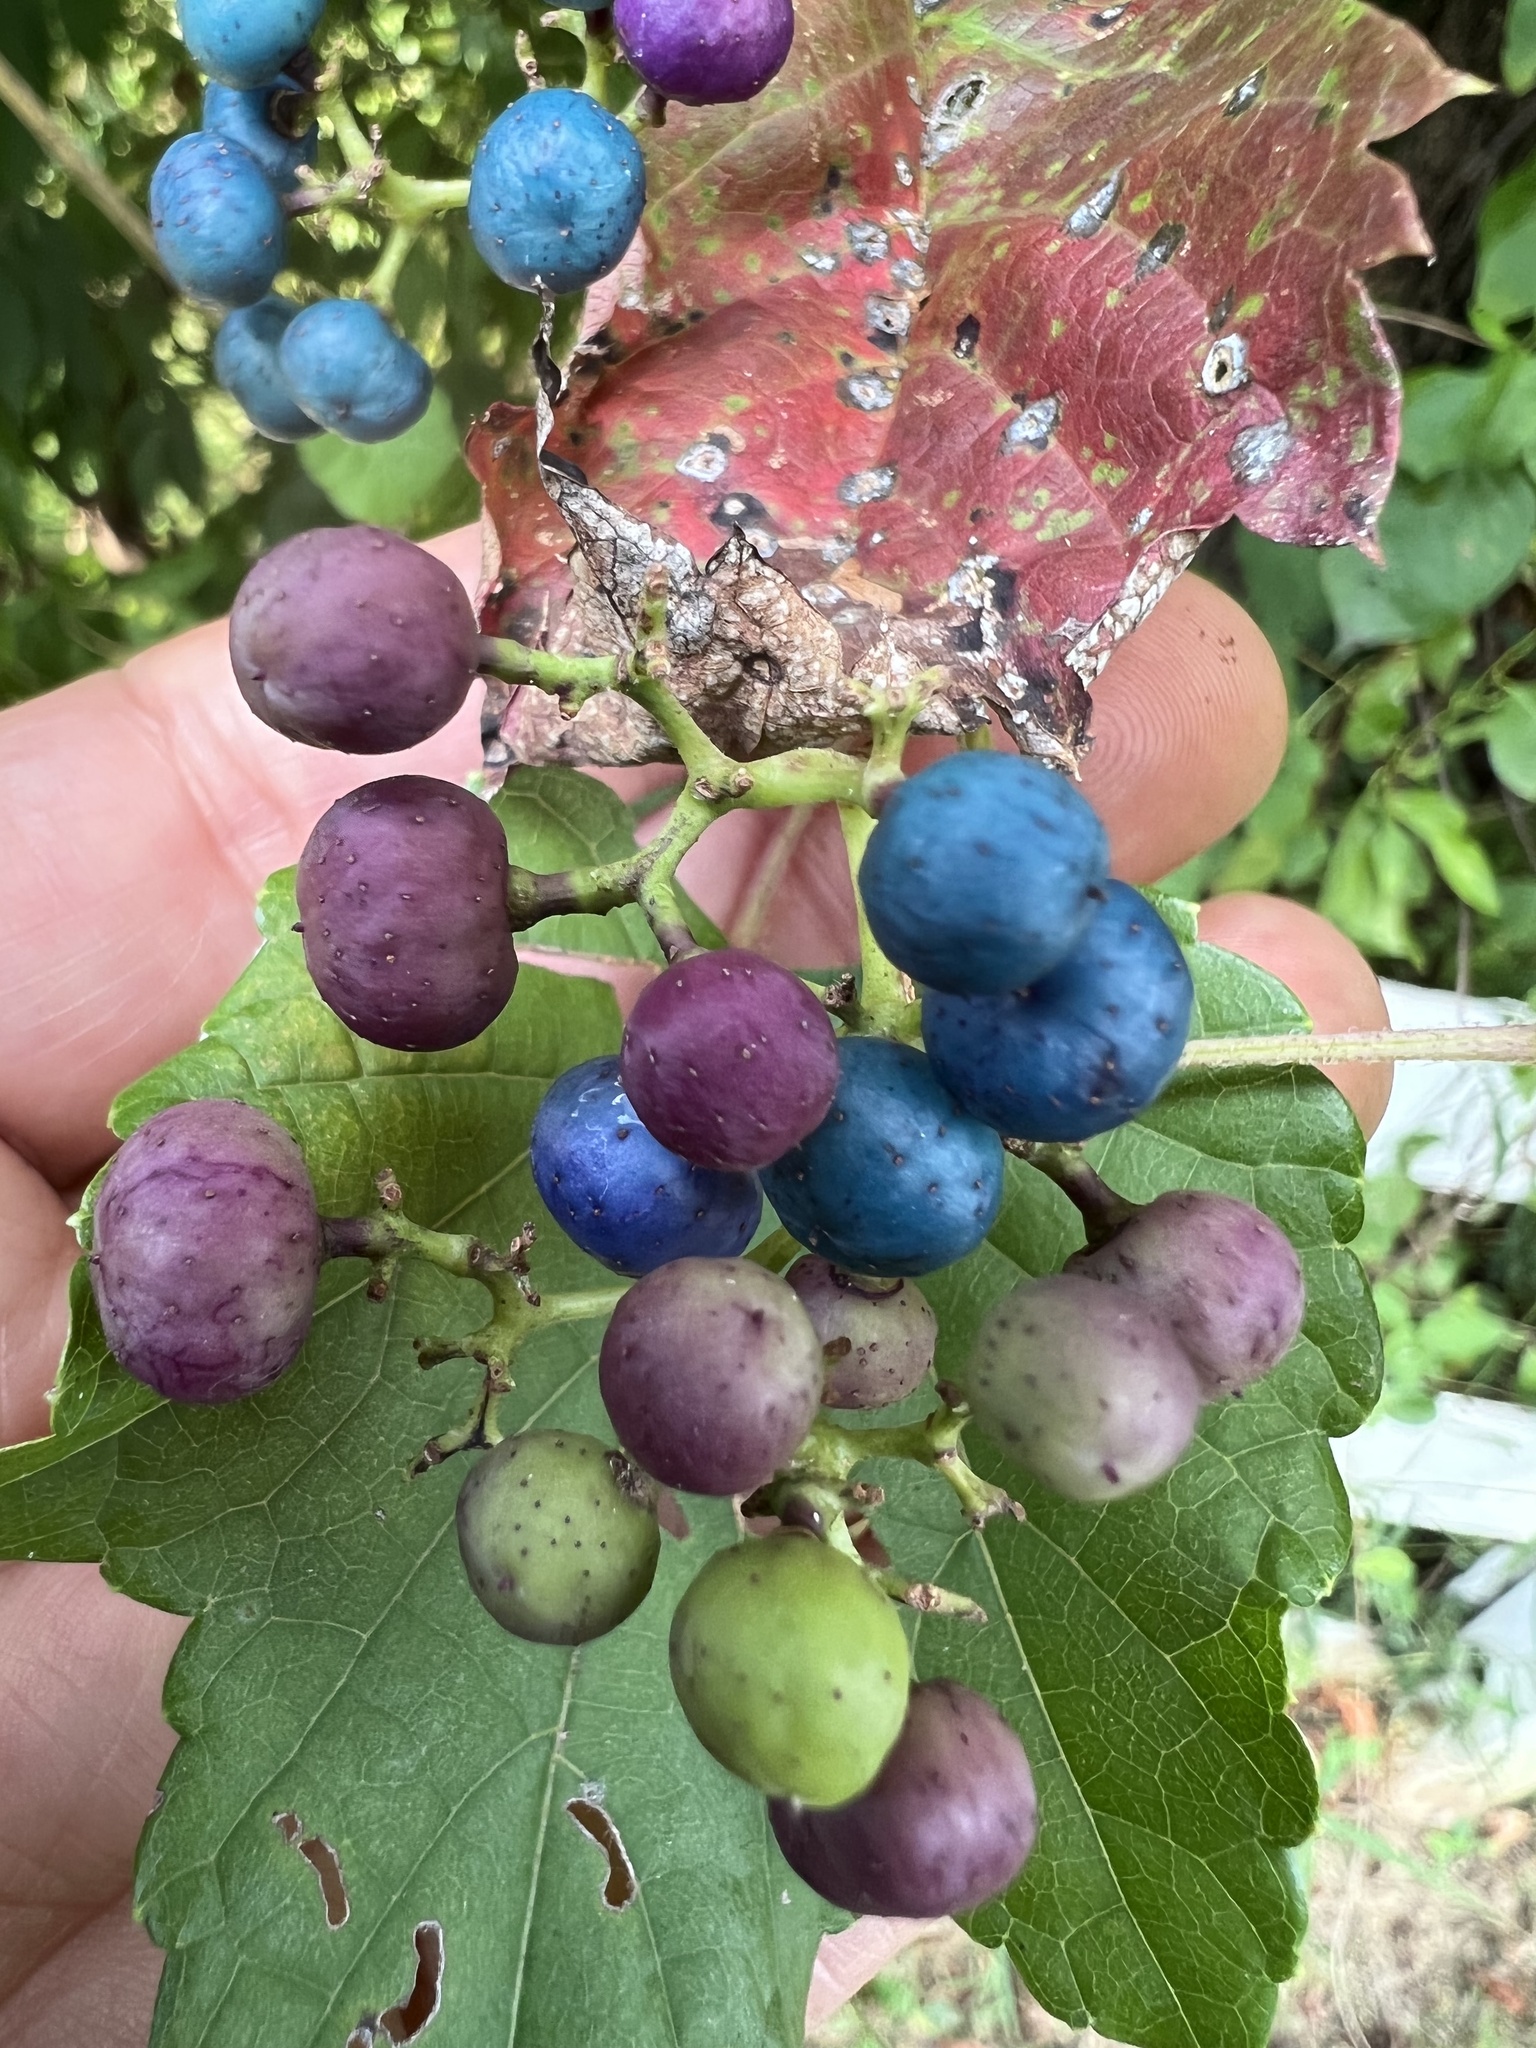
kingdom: Plantae
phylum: Tracheophyta
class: Magnoliopsida
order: Vitales
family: Vitaceae
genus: Ampelopsis
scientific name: Ampelopsis glandulosa
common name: Amur peppervine
